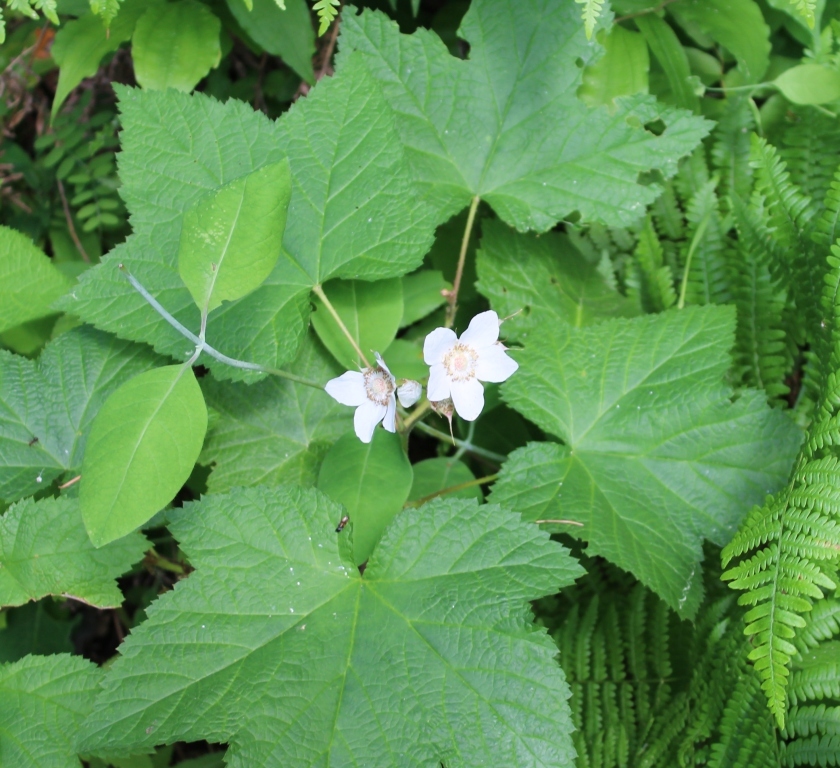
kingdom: Plantae
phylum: Tracheophyta
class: Magnoliopsida
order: Rosales
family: Rosaceae
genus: Rubus
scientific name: Rubus parviflorus
